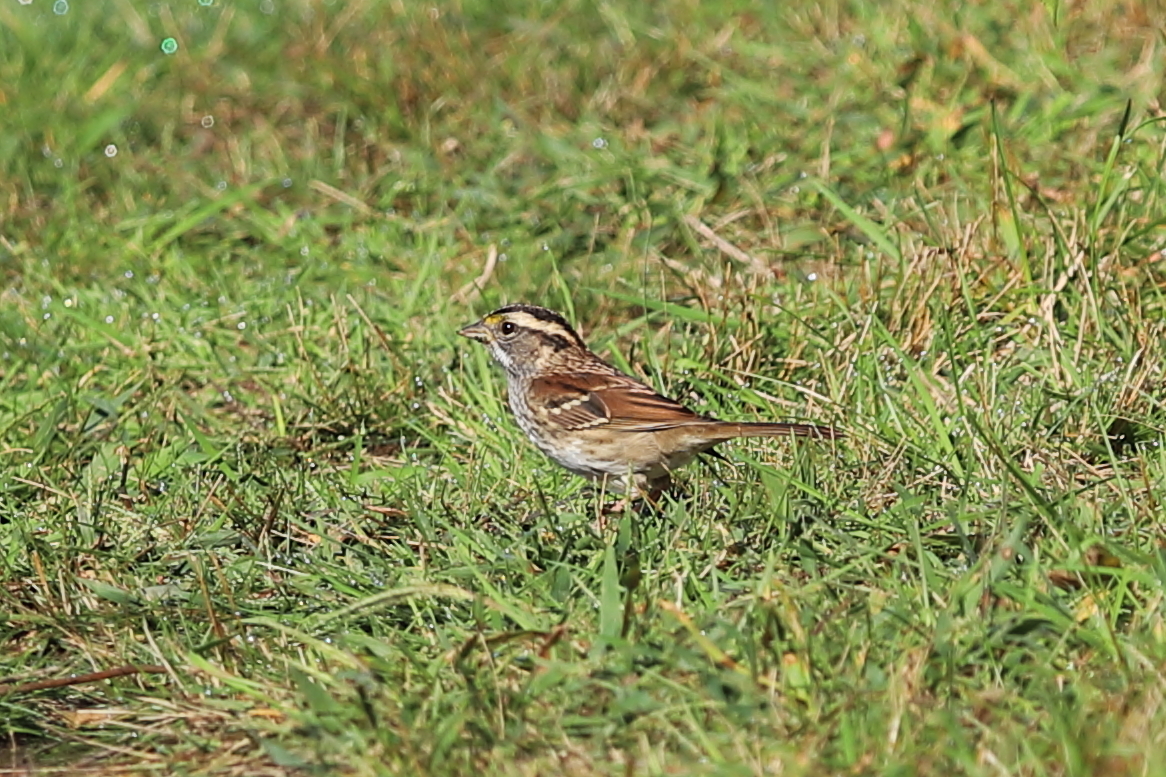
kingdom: Animalia
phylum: Chordata
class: Aves
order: Passeriformes
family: Passerellidae
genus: Zonotrichia
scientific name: Zonotrichia albicollis
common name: White-throated sparrow
